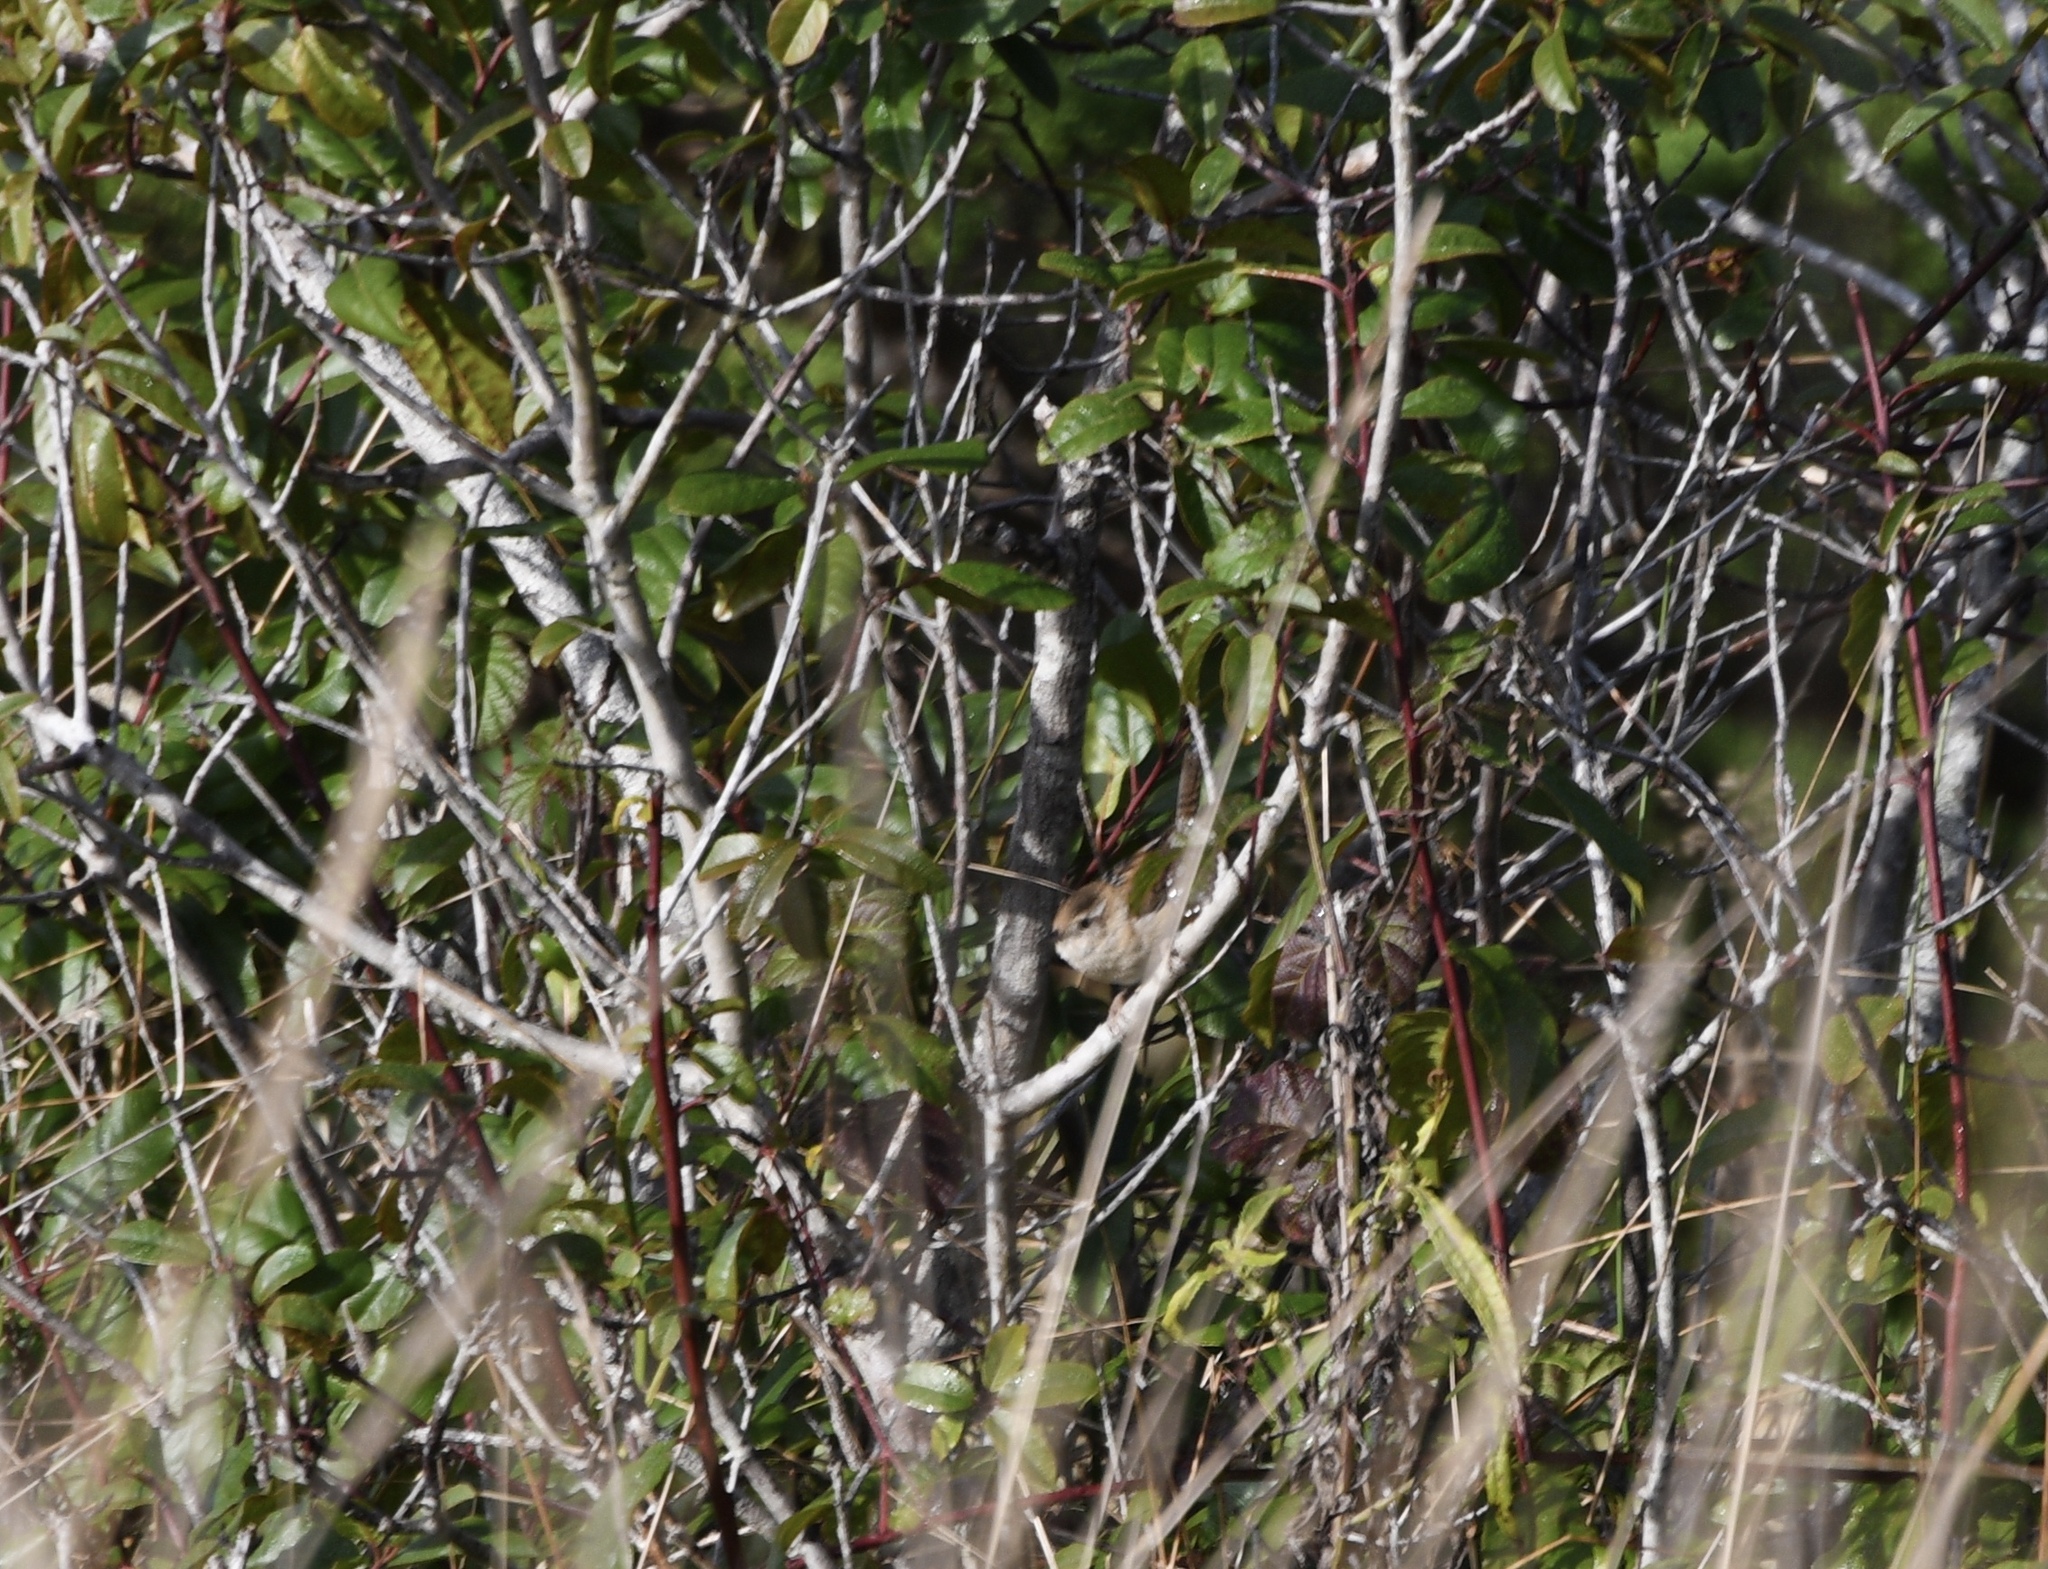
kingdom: Animalia
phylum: Chordata
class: Aves
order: Passeriformes
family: Troglodytidae
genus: Cistothorus
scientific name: Cistothorus palustris
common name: Marsh wren
